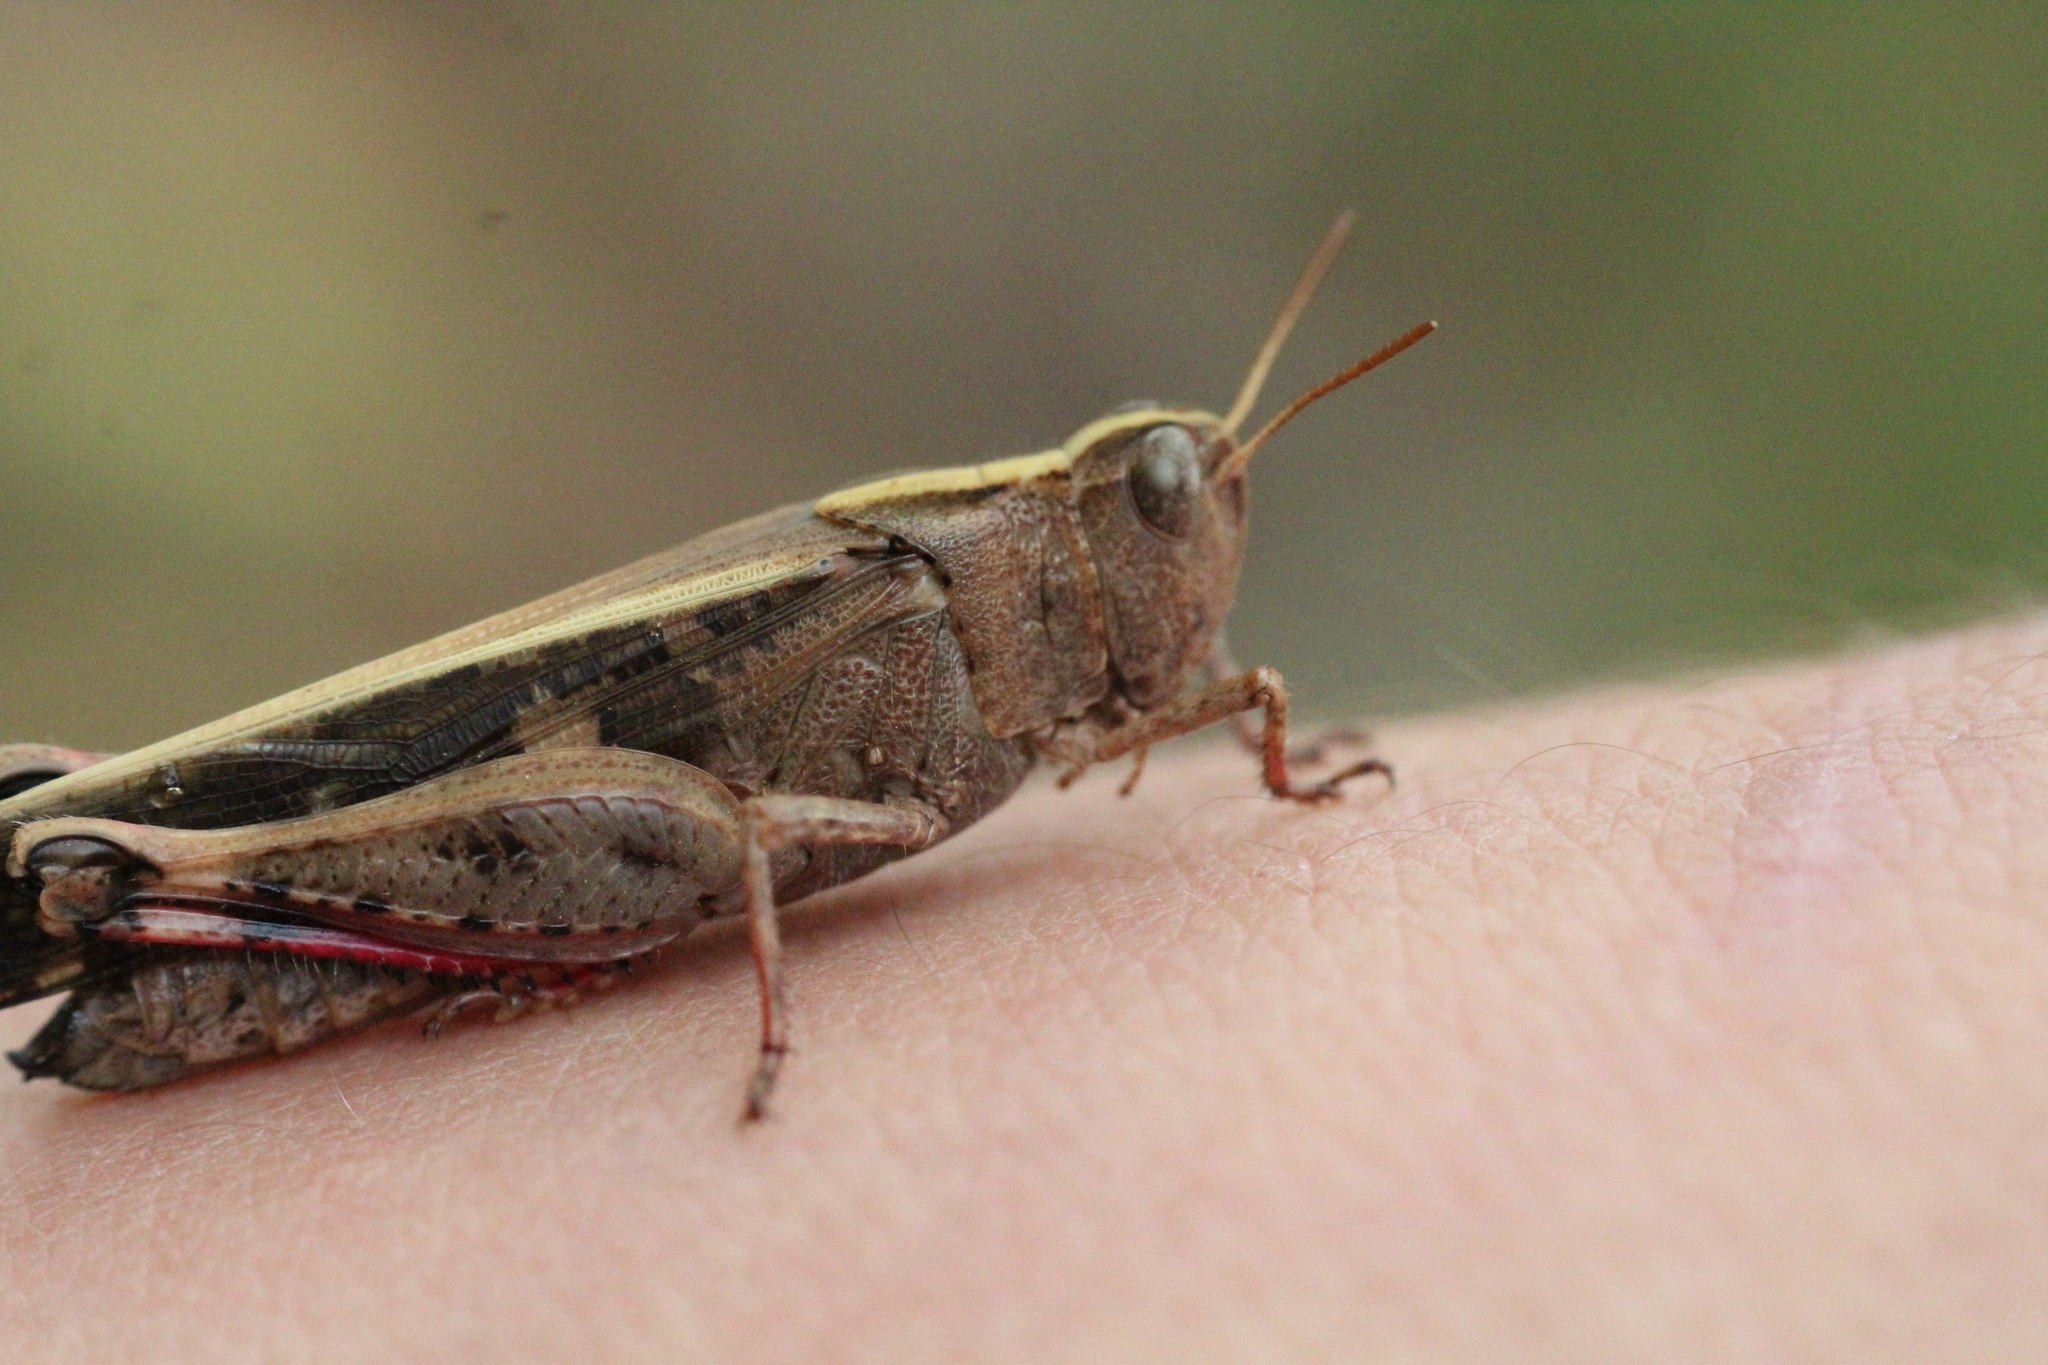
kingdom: Animalia
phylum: Arthropoda
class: Insecta
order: Orthoptera
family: Acrididae
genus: Aiolopus
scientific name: Aiolopus strepens
